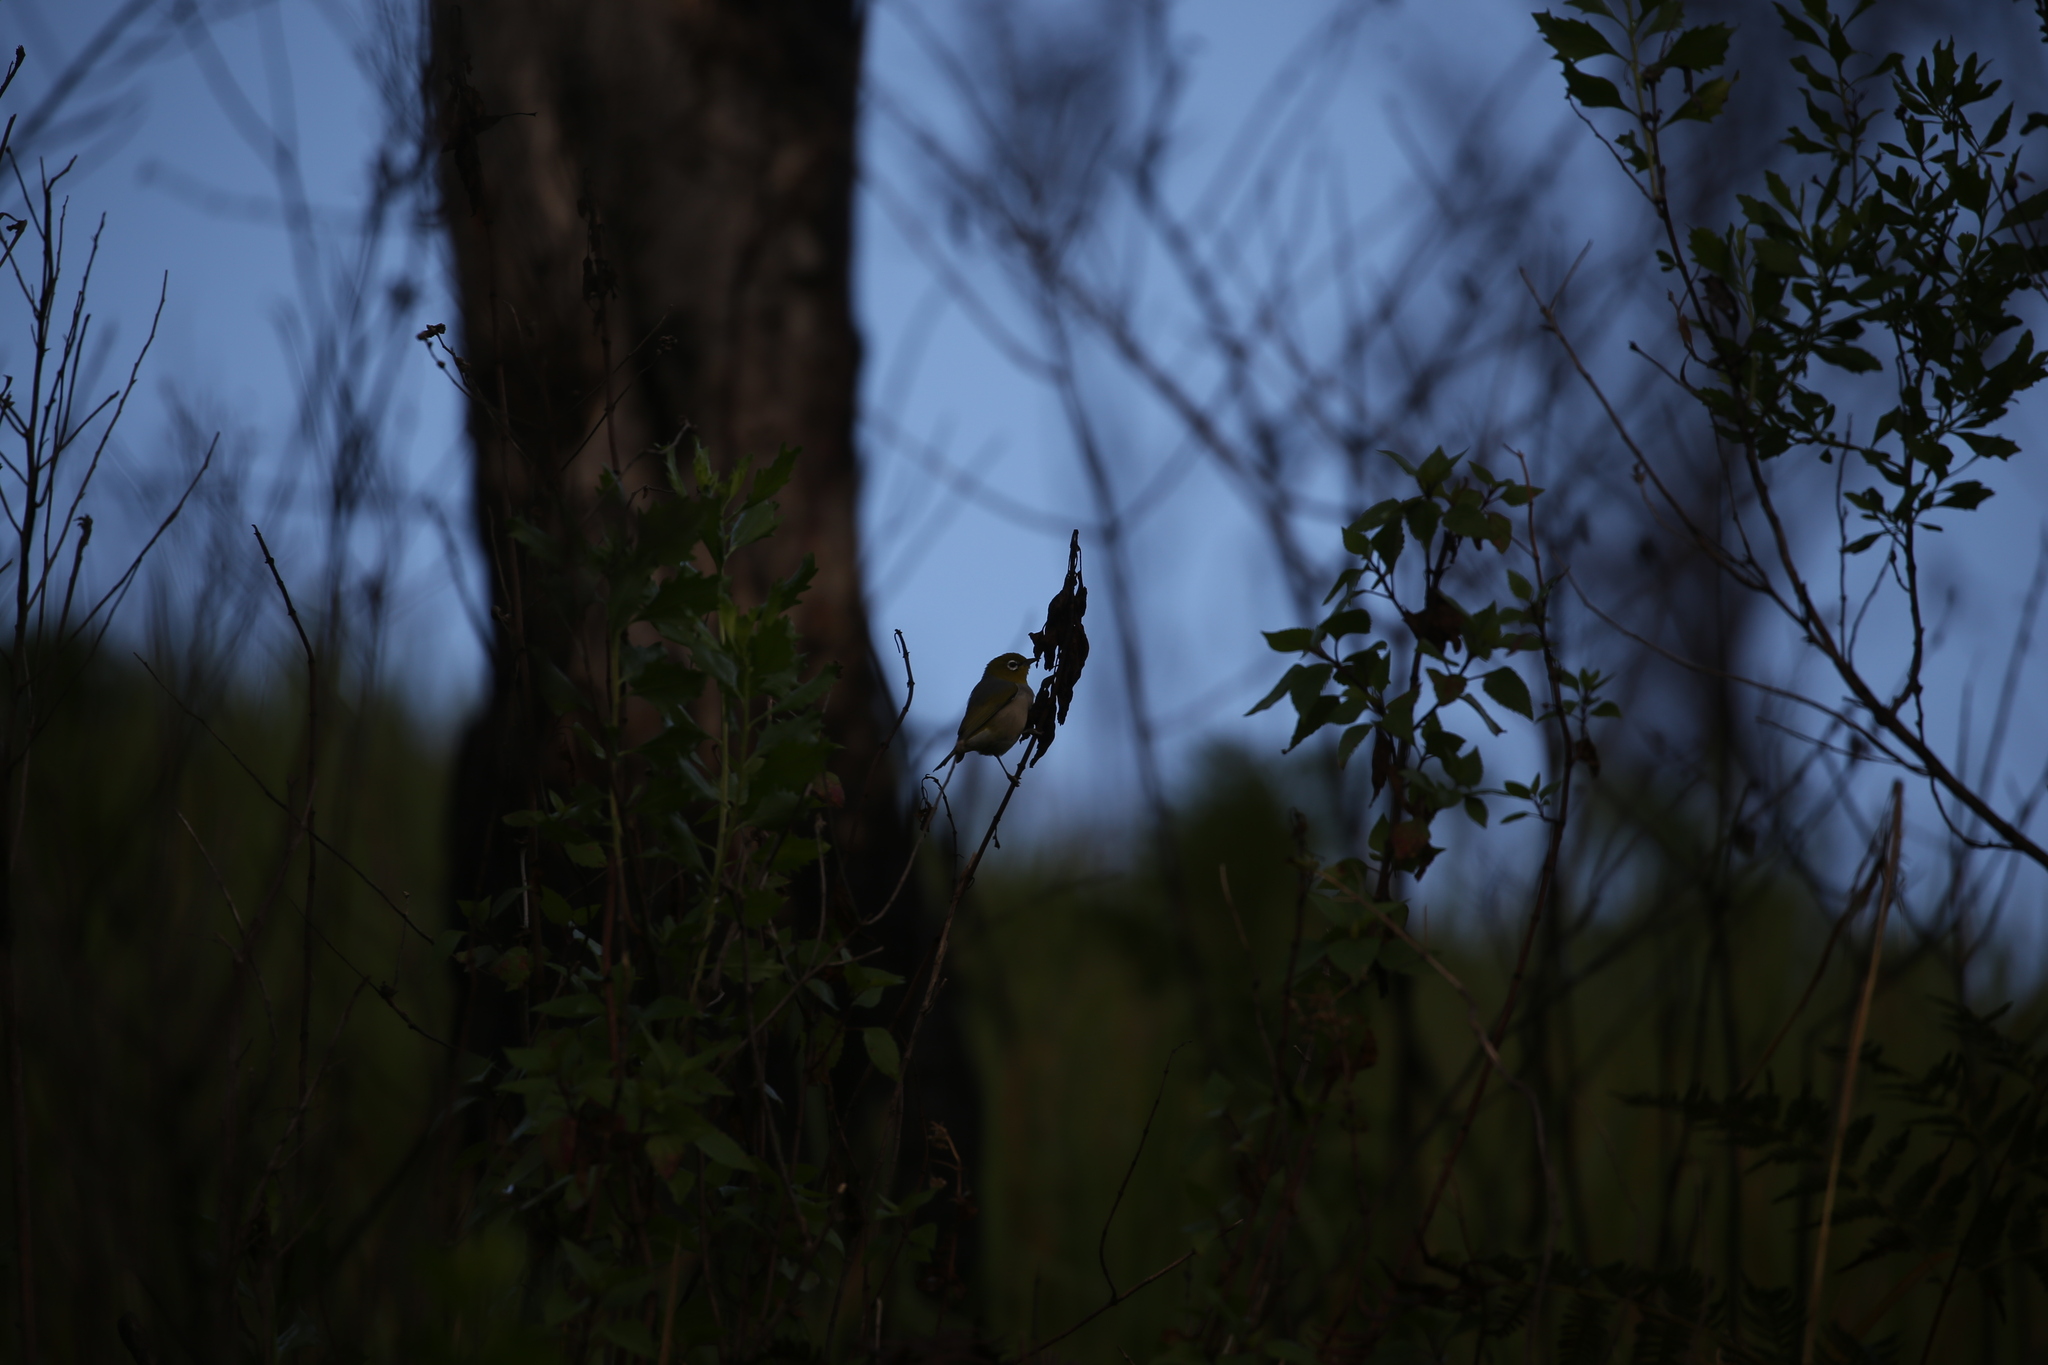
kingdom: Animalia
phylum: Chordata
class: Aves
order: Passeriformes
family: Zosteropidae
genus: Zosterops
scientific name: Zosterops lateralis
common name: Silvereye
